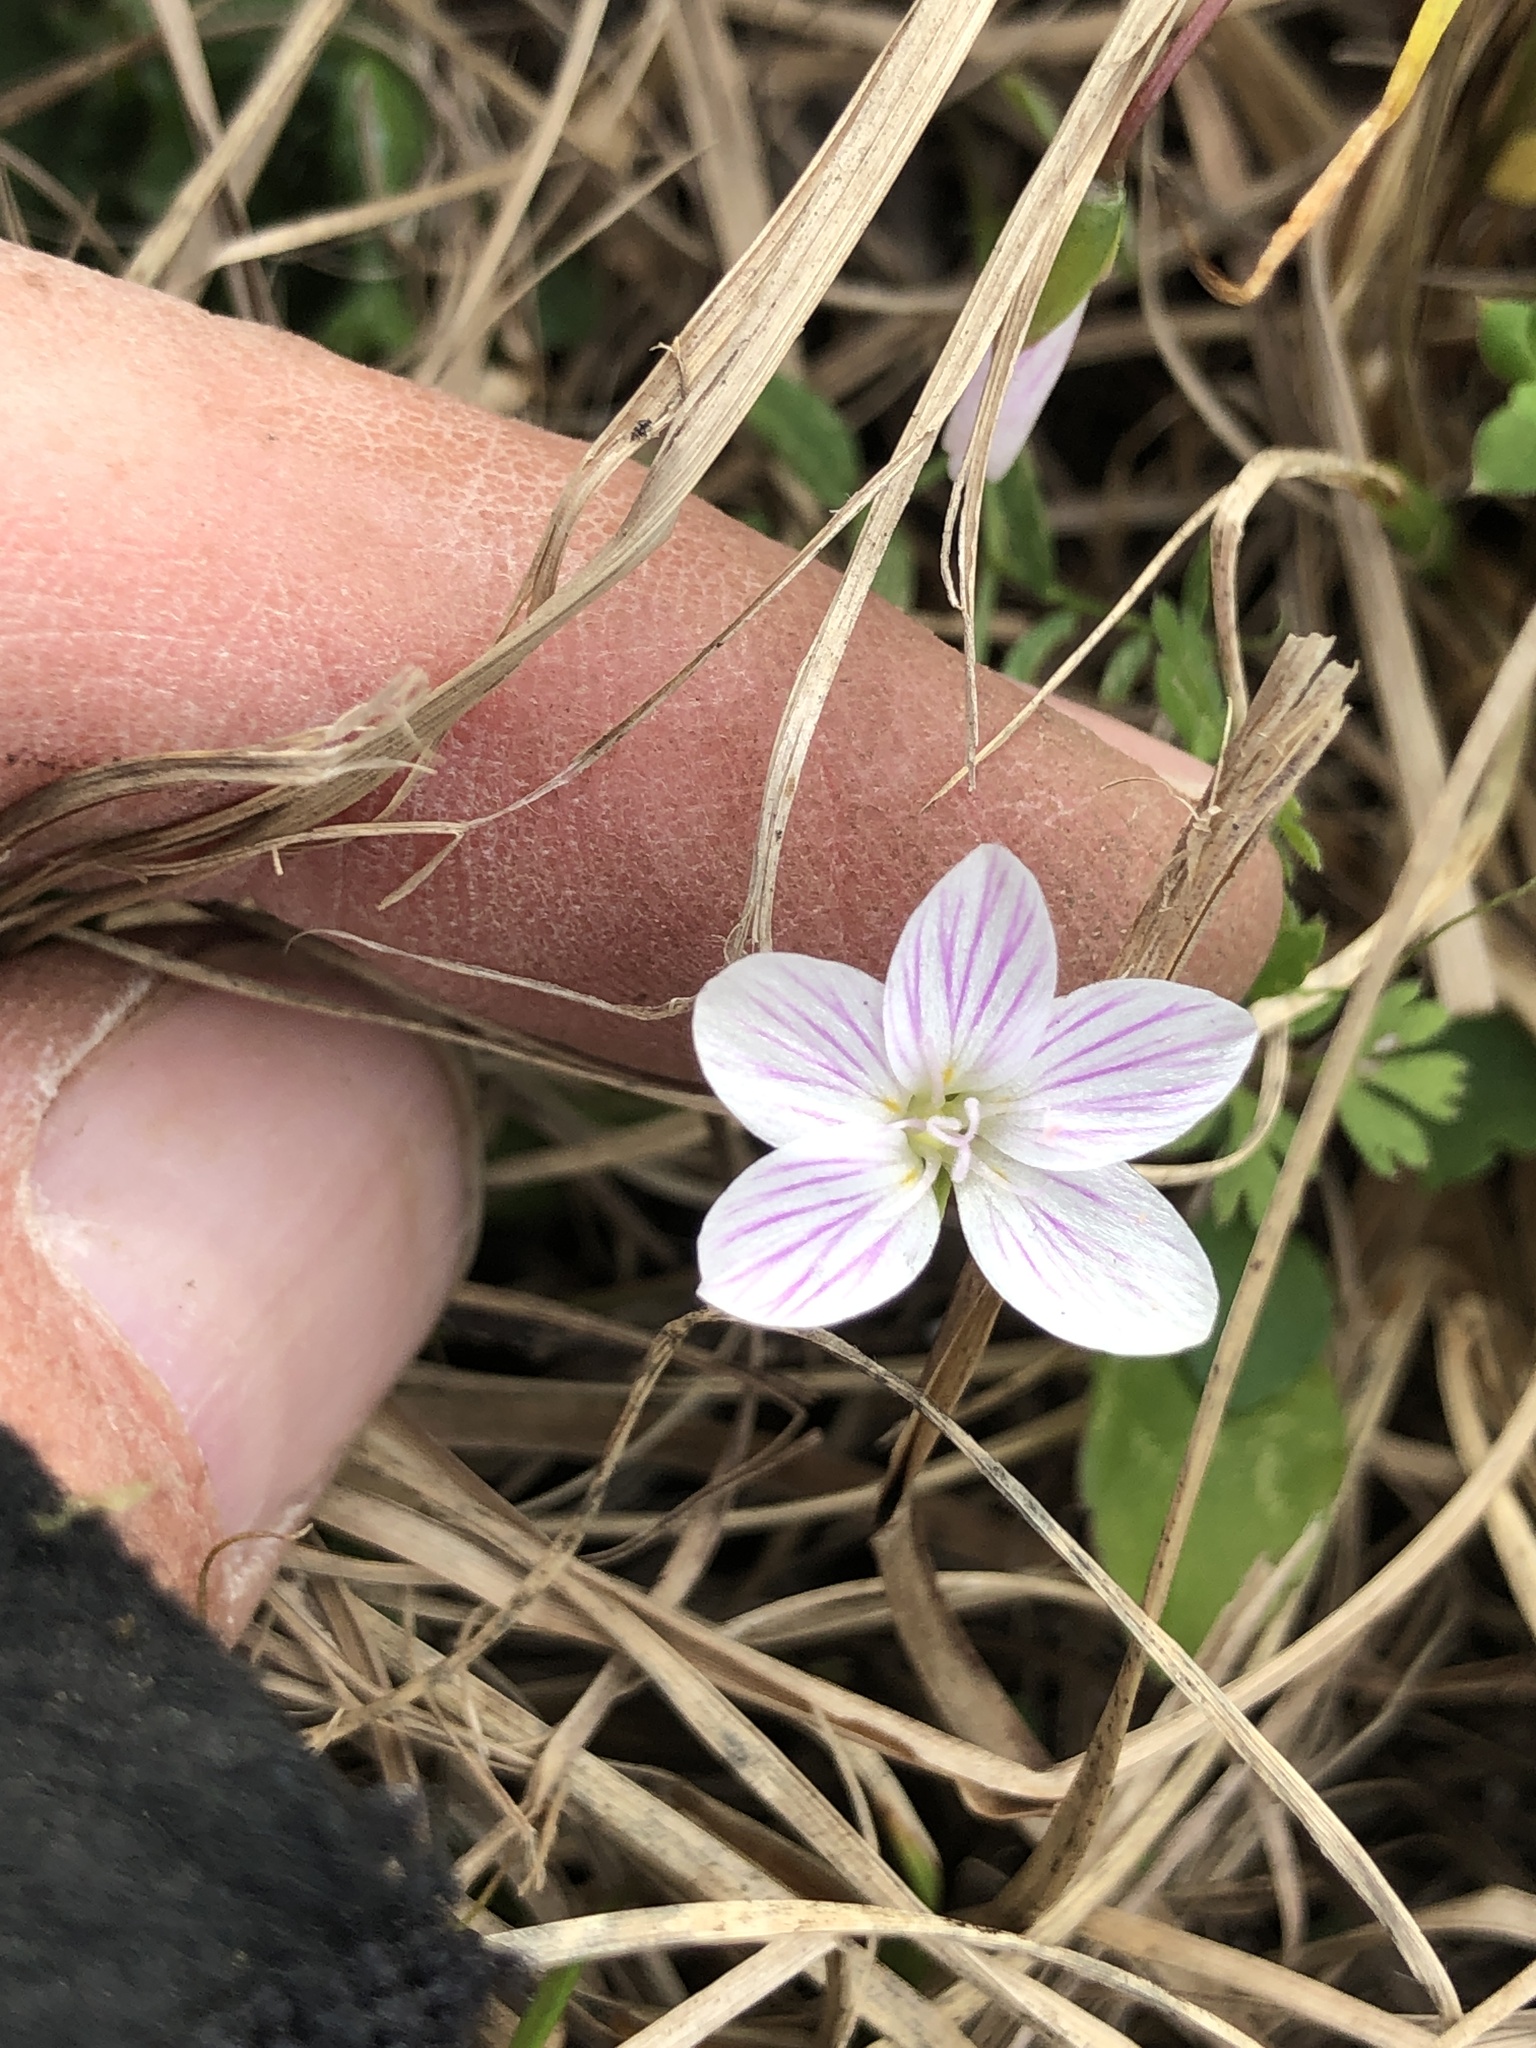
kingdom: Plantae
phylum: Tracheophyta
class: Magnoliopsida
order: Caryophyllales
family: Montiaceae
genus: Claytonia
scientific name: Claytonia virginica
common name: Virginia springbeauty
